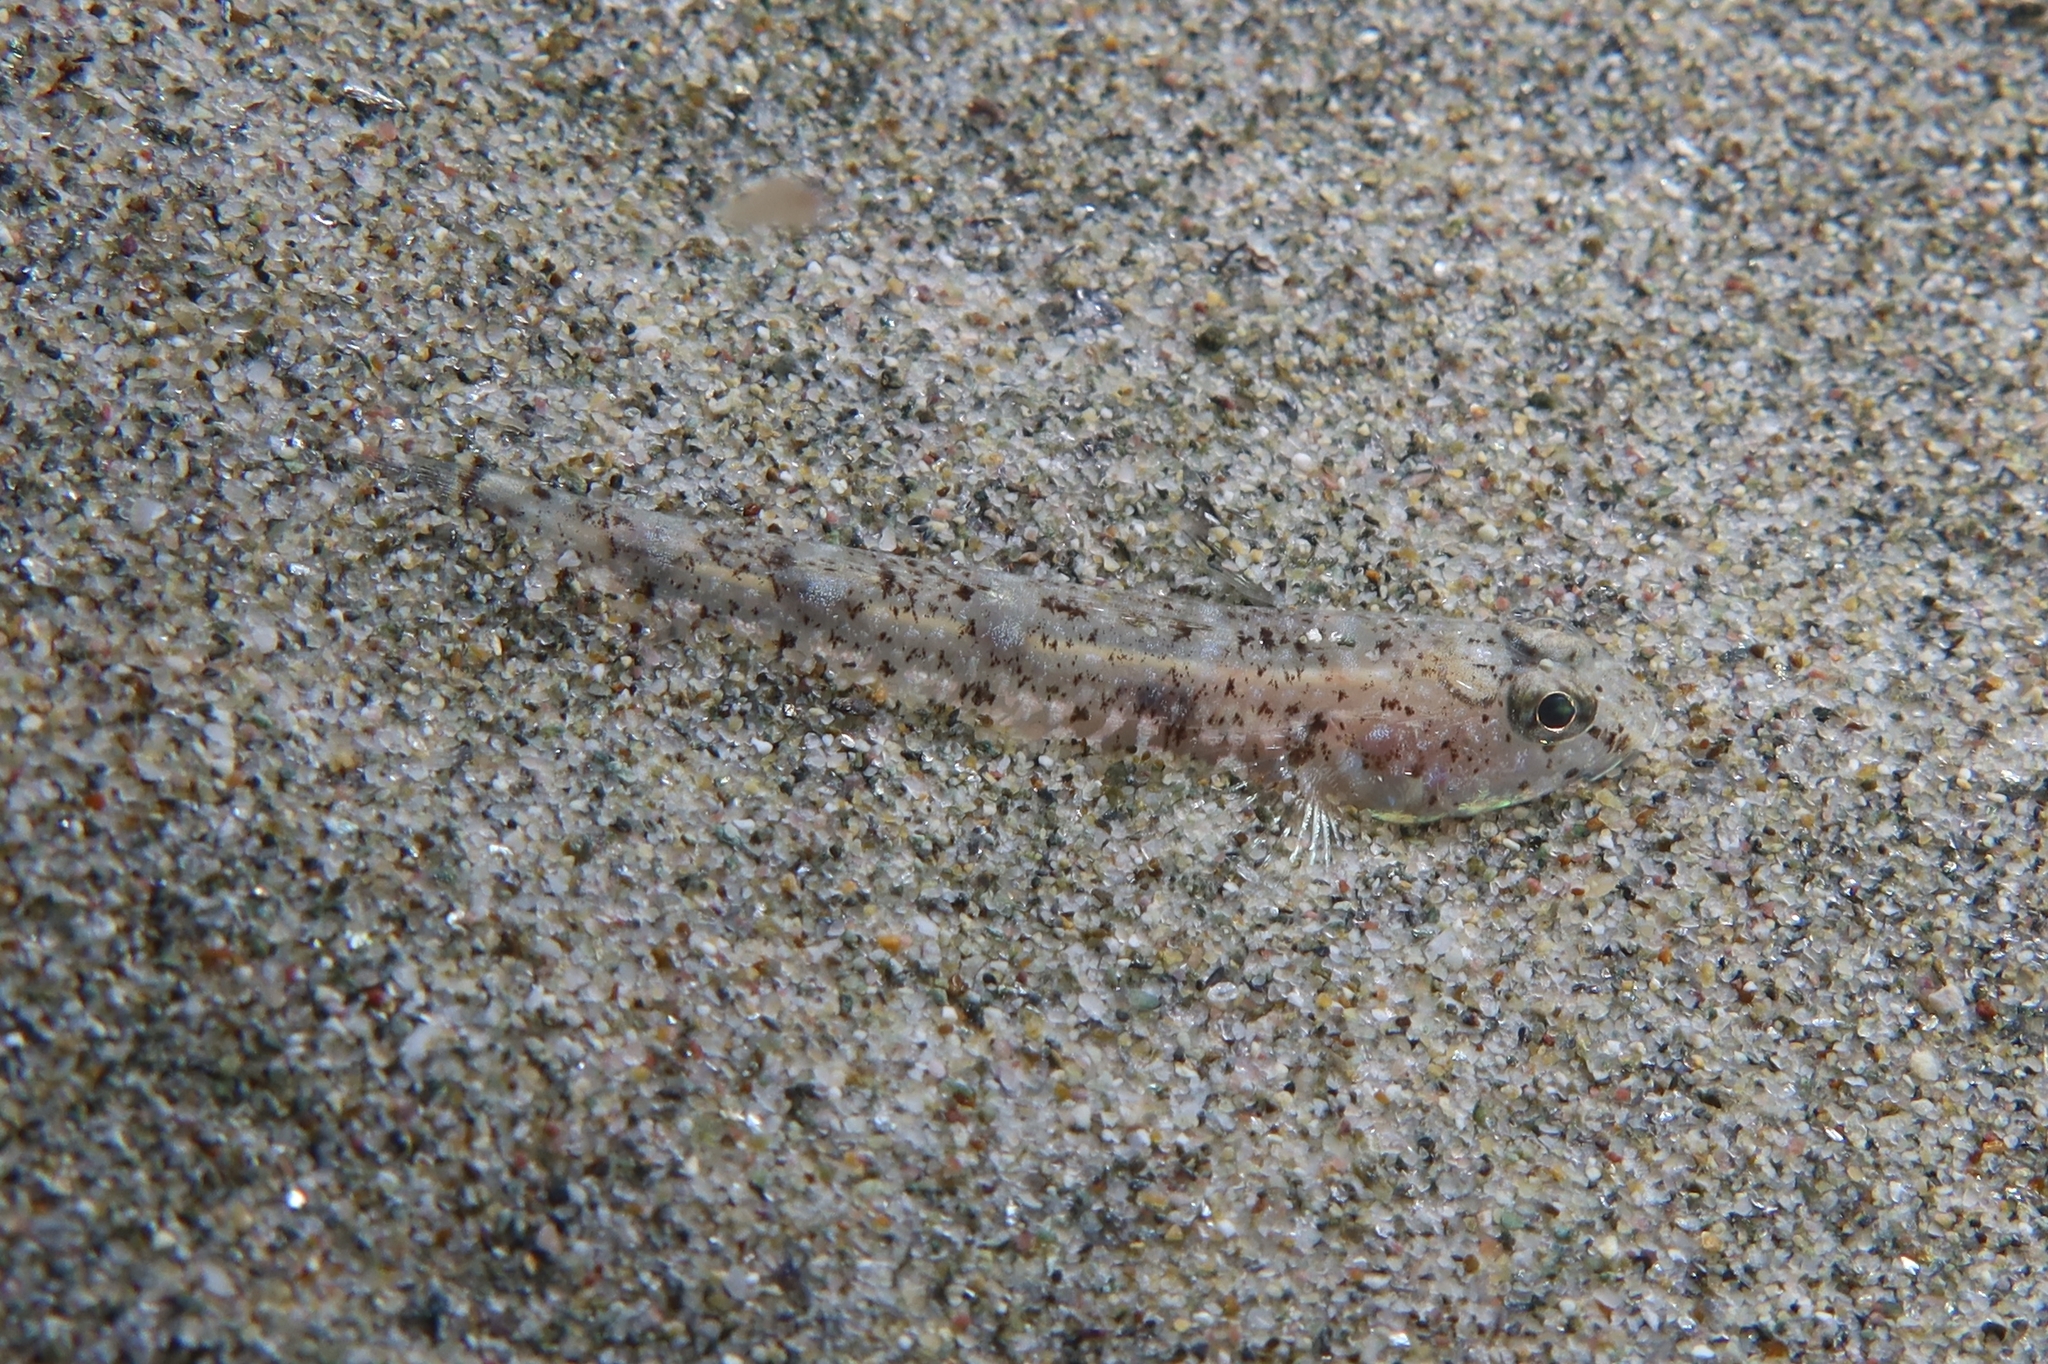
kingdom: Animalia
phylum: Chordata
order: Perciformes
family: Gobiidae
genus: Pomatoschistus
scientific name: Pomatoschistus marmoratus
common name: Marbled goby
